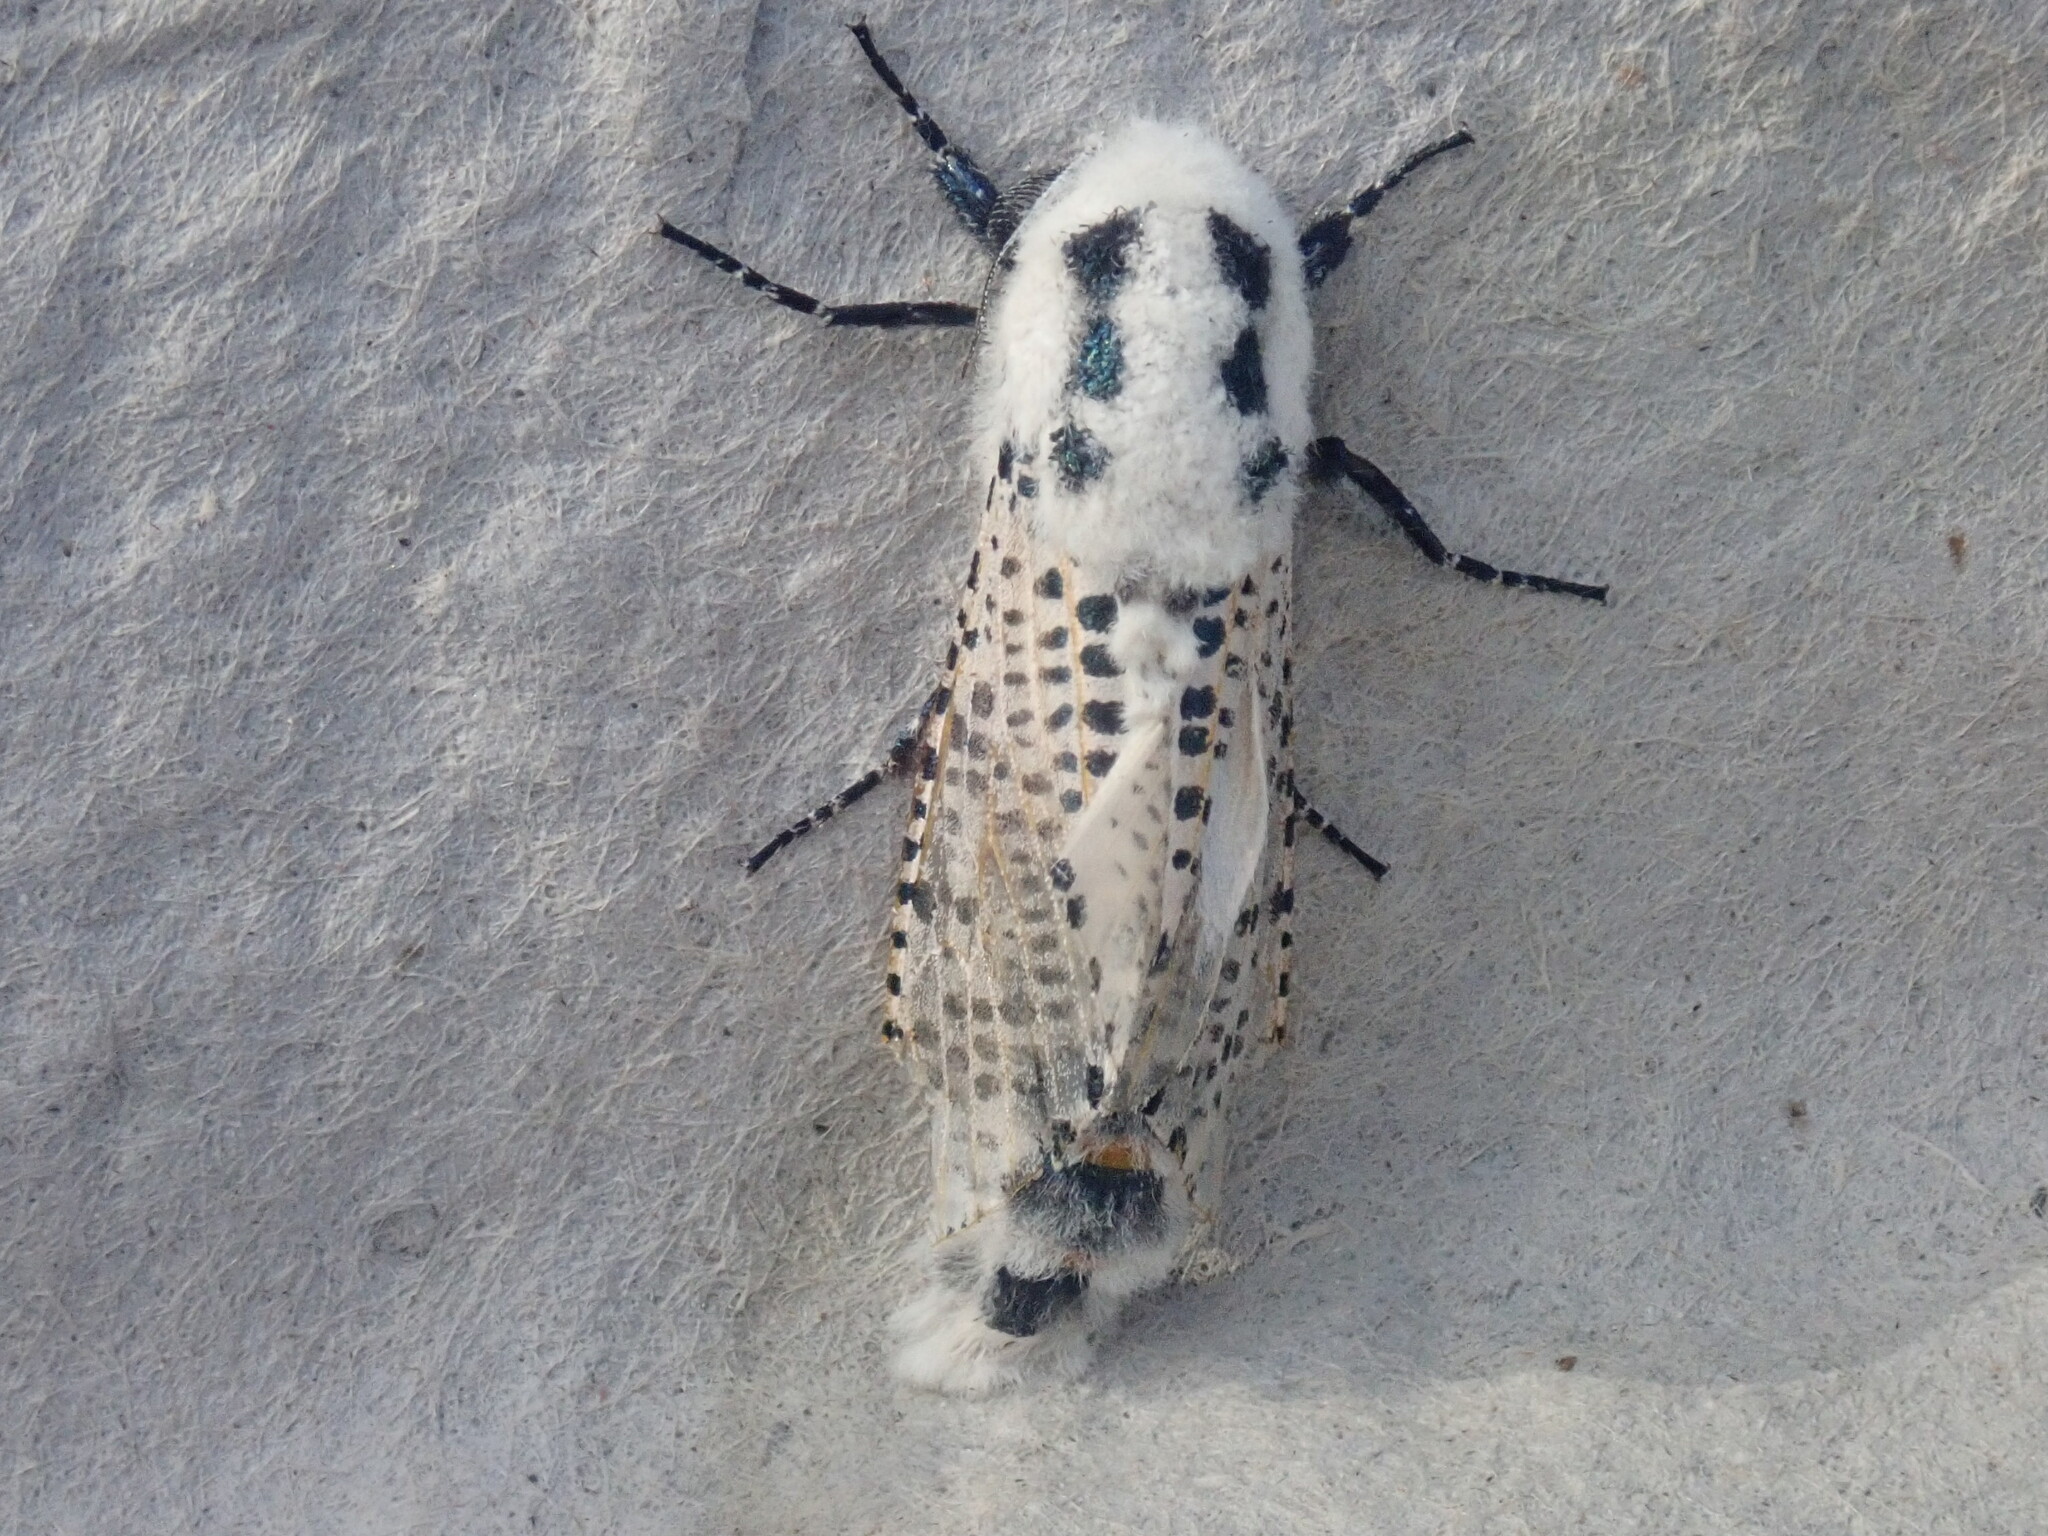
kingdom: Animalia
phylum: Arthropoda
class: Insecta
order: Lepidoptera
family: Cossidae
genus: Zeuzera
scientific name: Zeuzera pyrina
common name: Leopard moth
